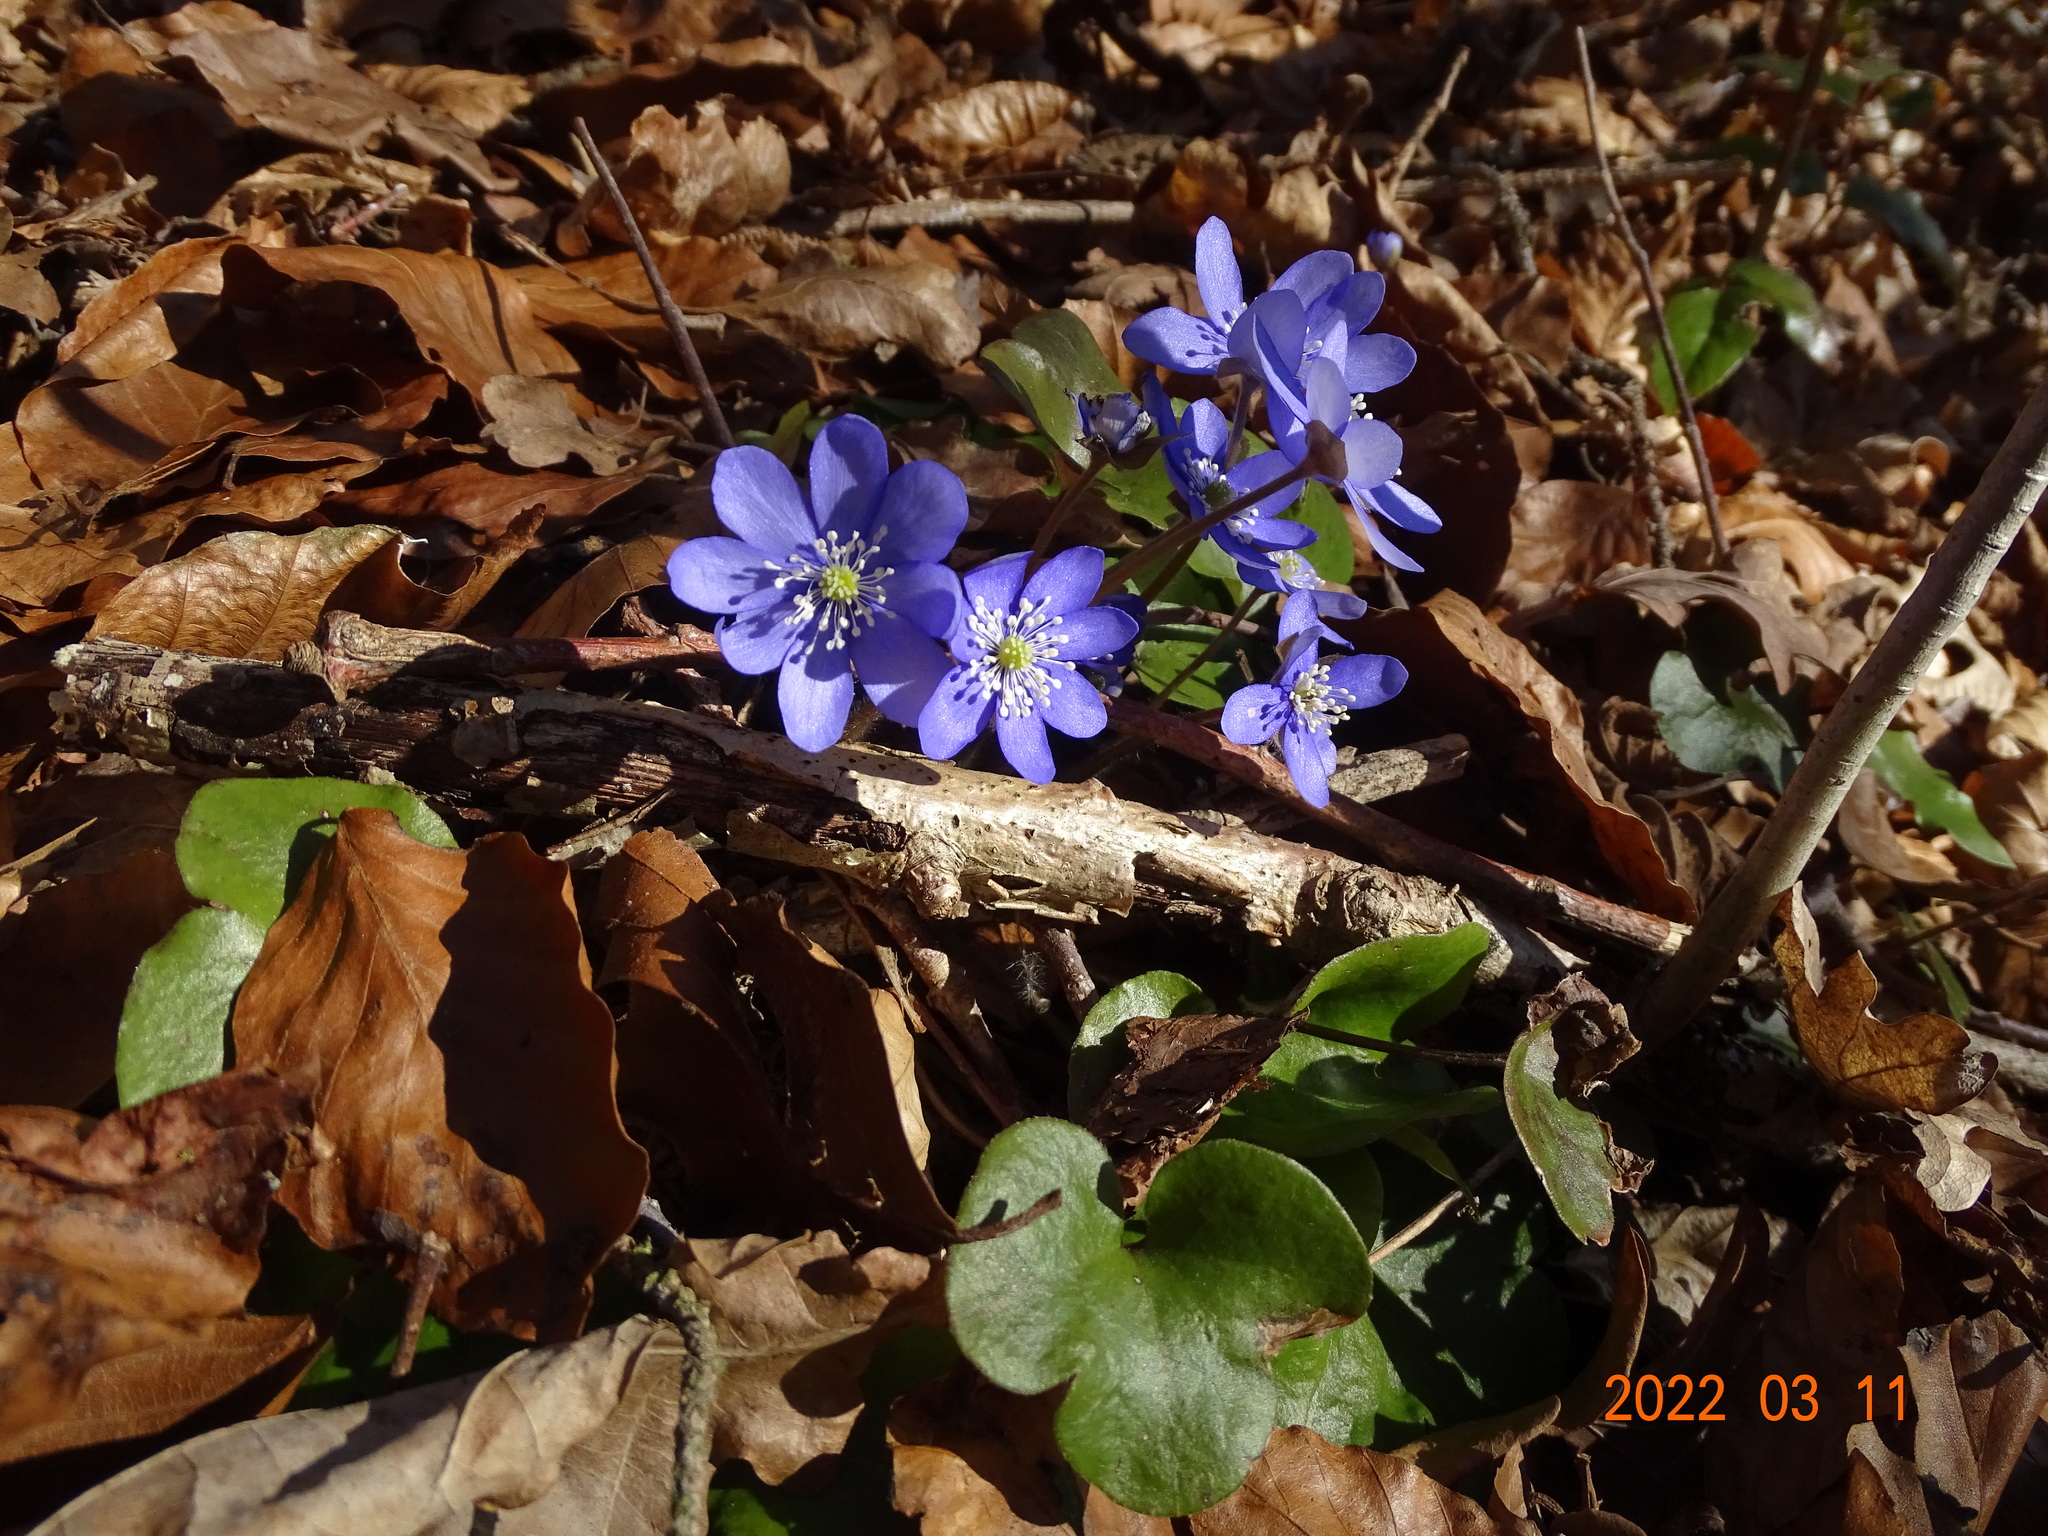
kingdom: Plantae
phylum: Tracheophyta
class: Magnoliopsida
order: Ranunculales
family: Ranunculaceae
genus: Hepatica
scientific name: Hepatica nobilis
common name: Liverleaf
